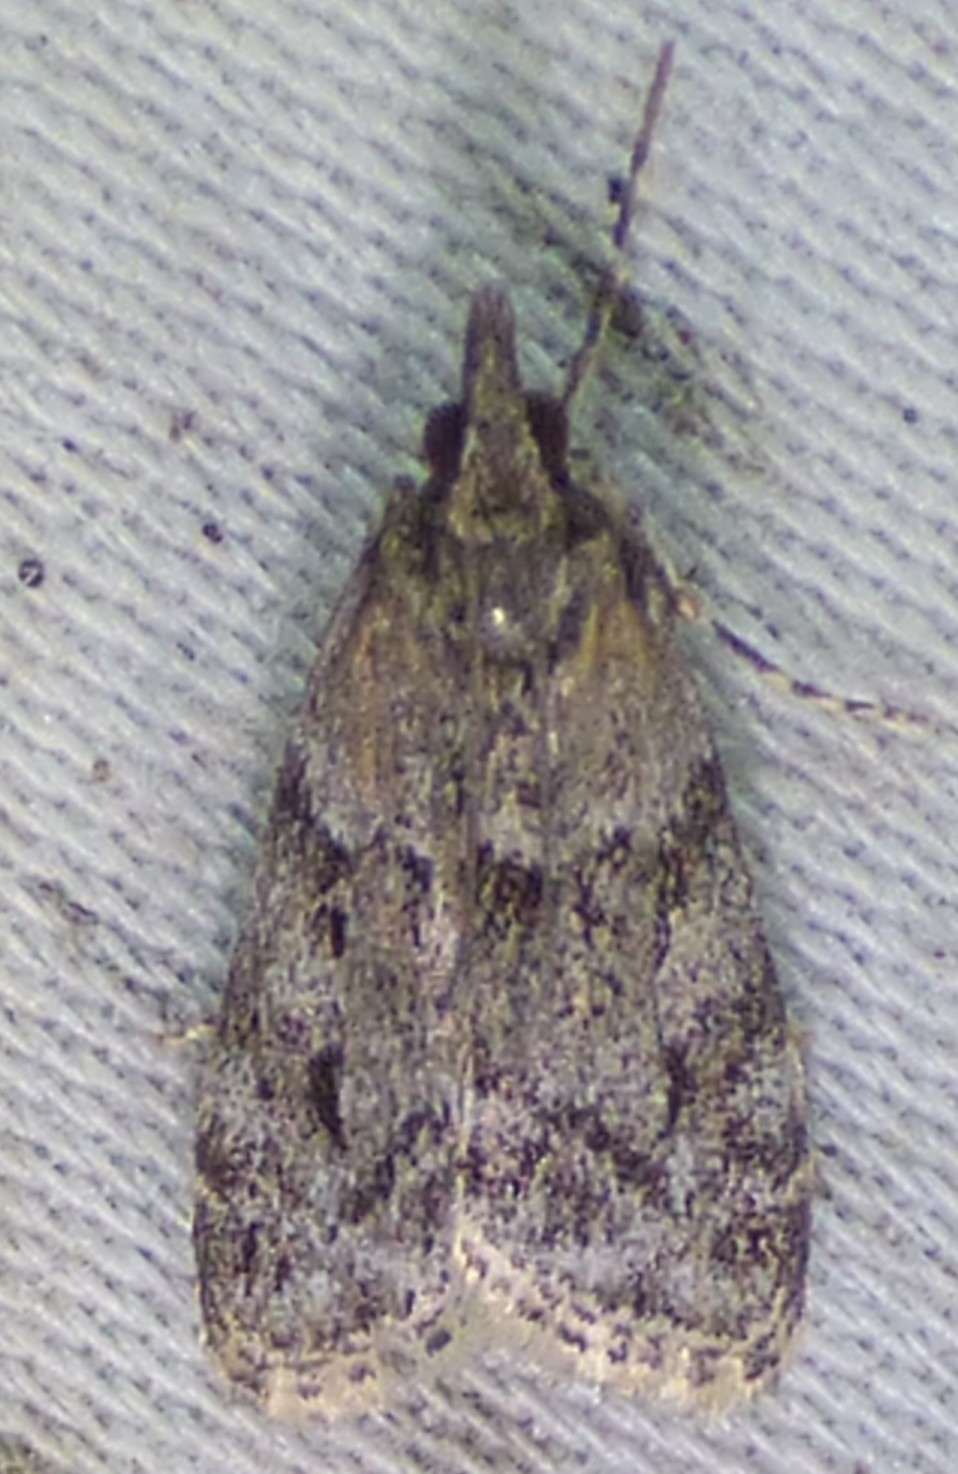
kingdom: Animalia
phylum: Arthropoda
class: Insecta
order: Lepidoptera
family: Crambidae
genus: Eudonia
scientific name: Eudonia heterosalis
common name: Mcdunnough's eudonia
